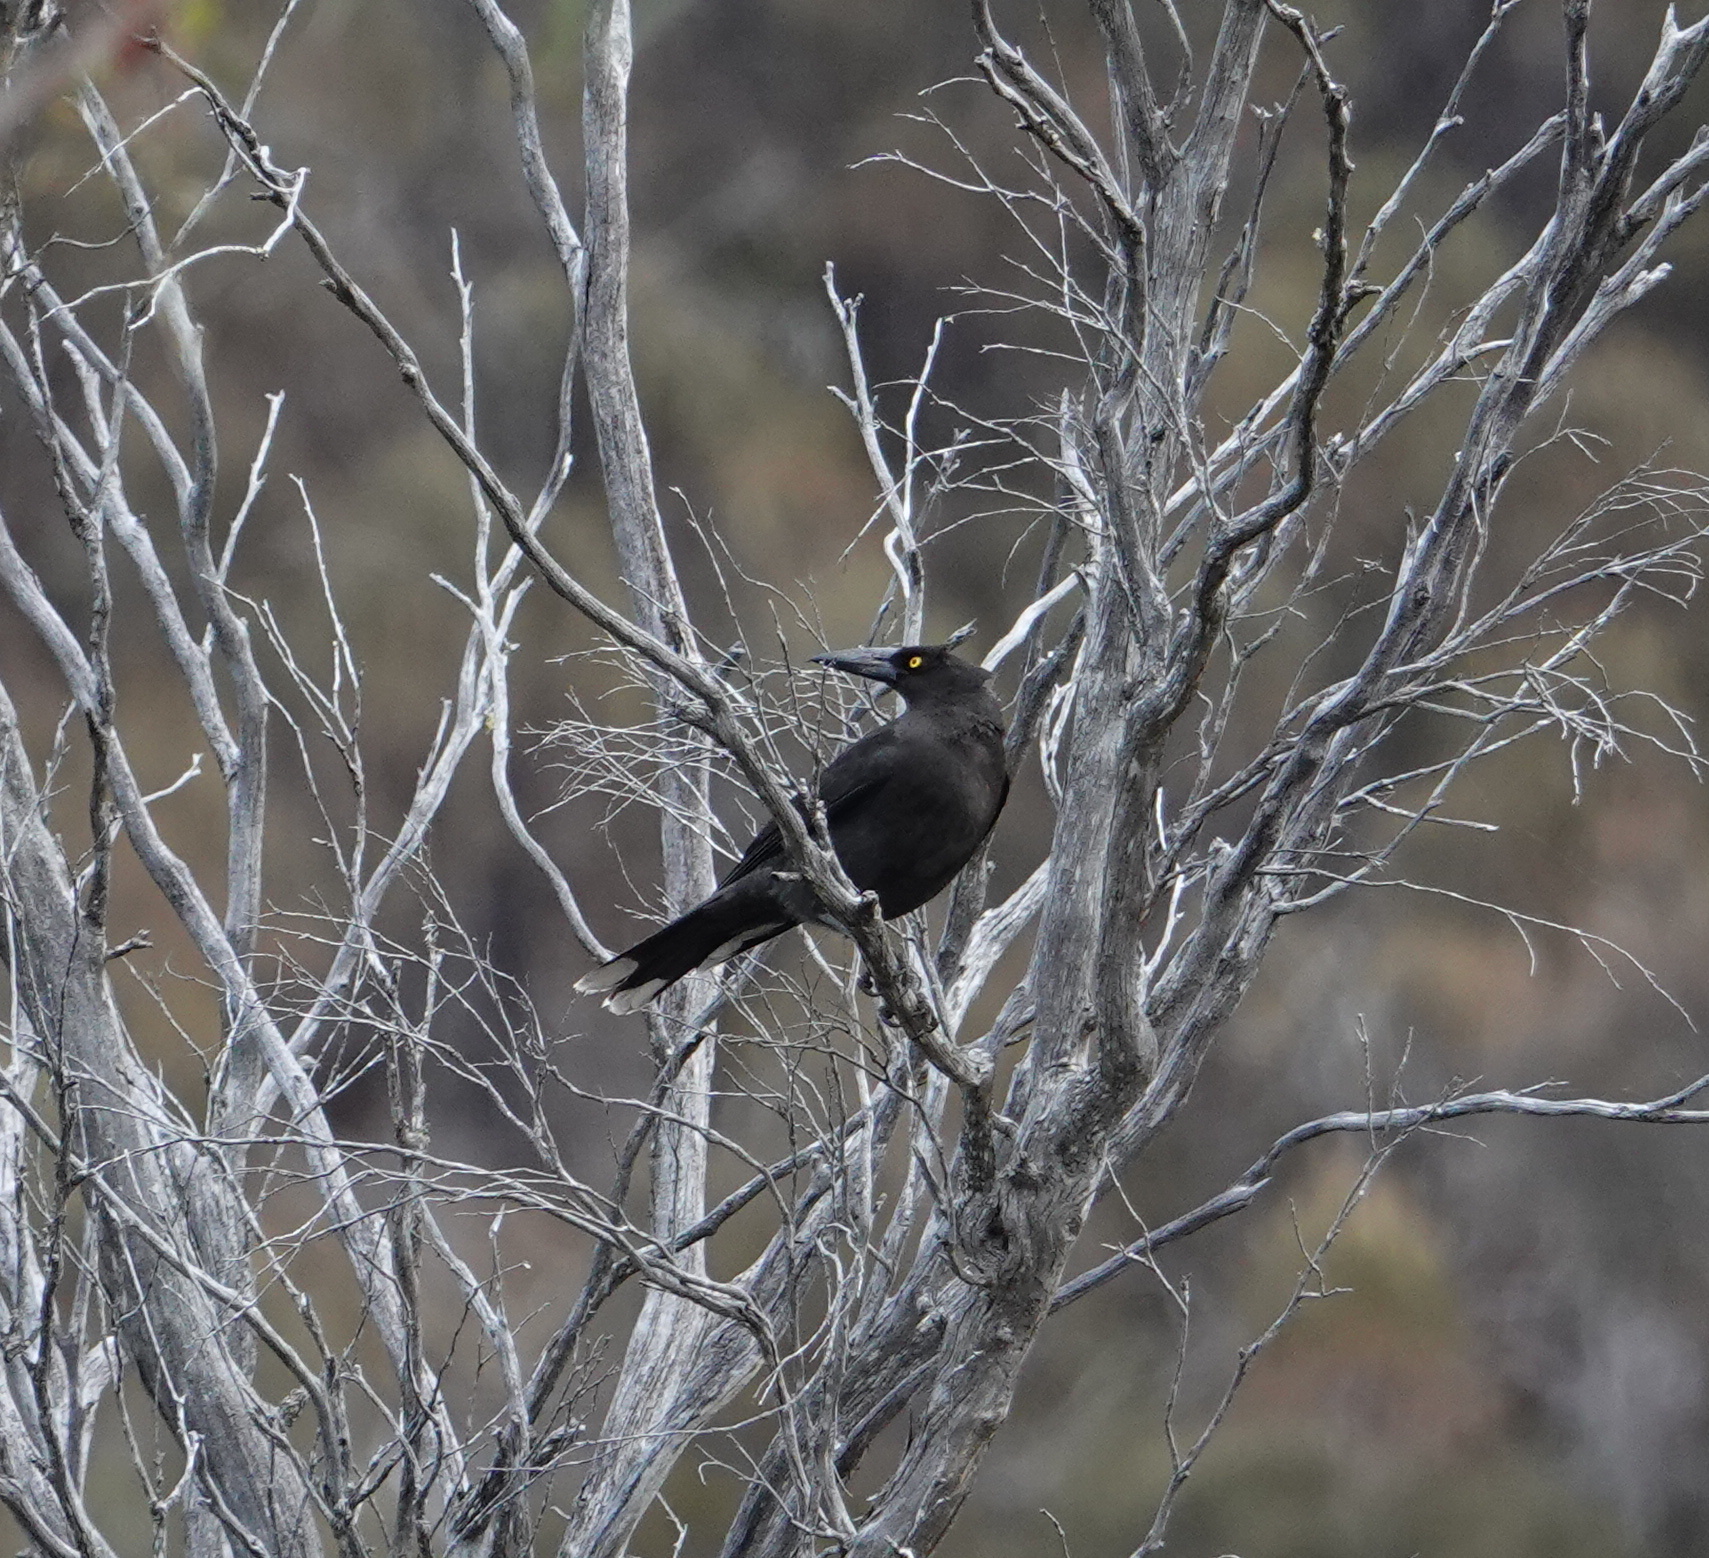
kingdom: Animalia
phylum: Chordata
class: Aves
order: Passeriformes
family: Cracticidae
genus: Strepera
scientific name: Strepera fuliginosa
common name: Black currawong
